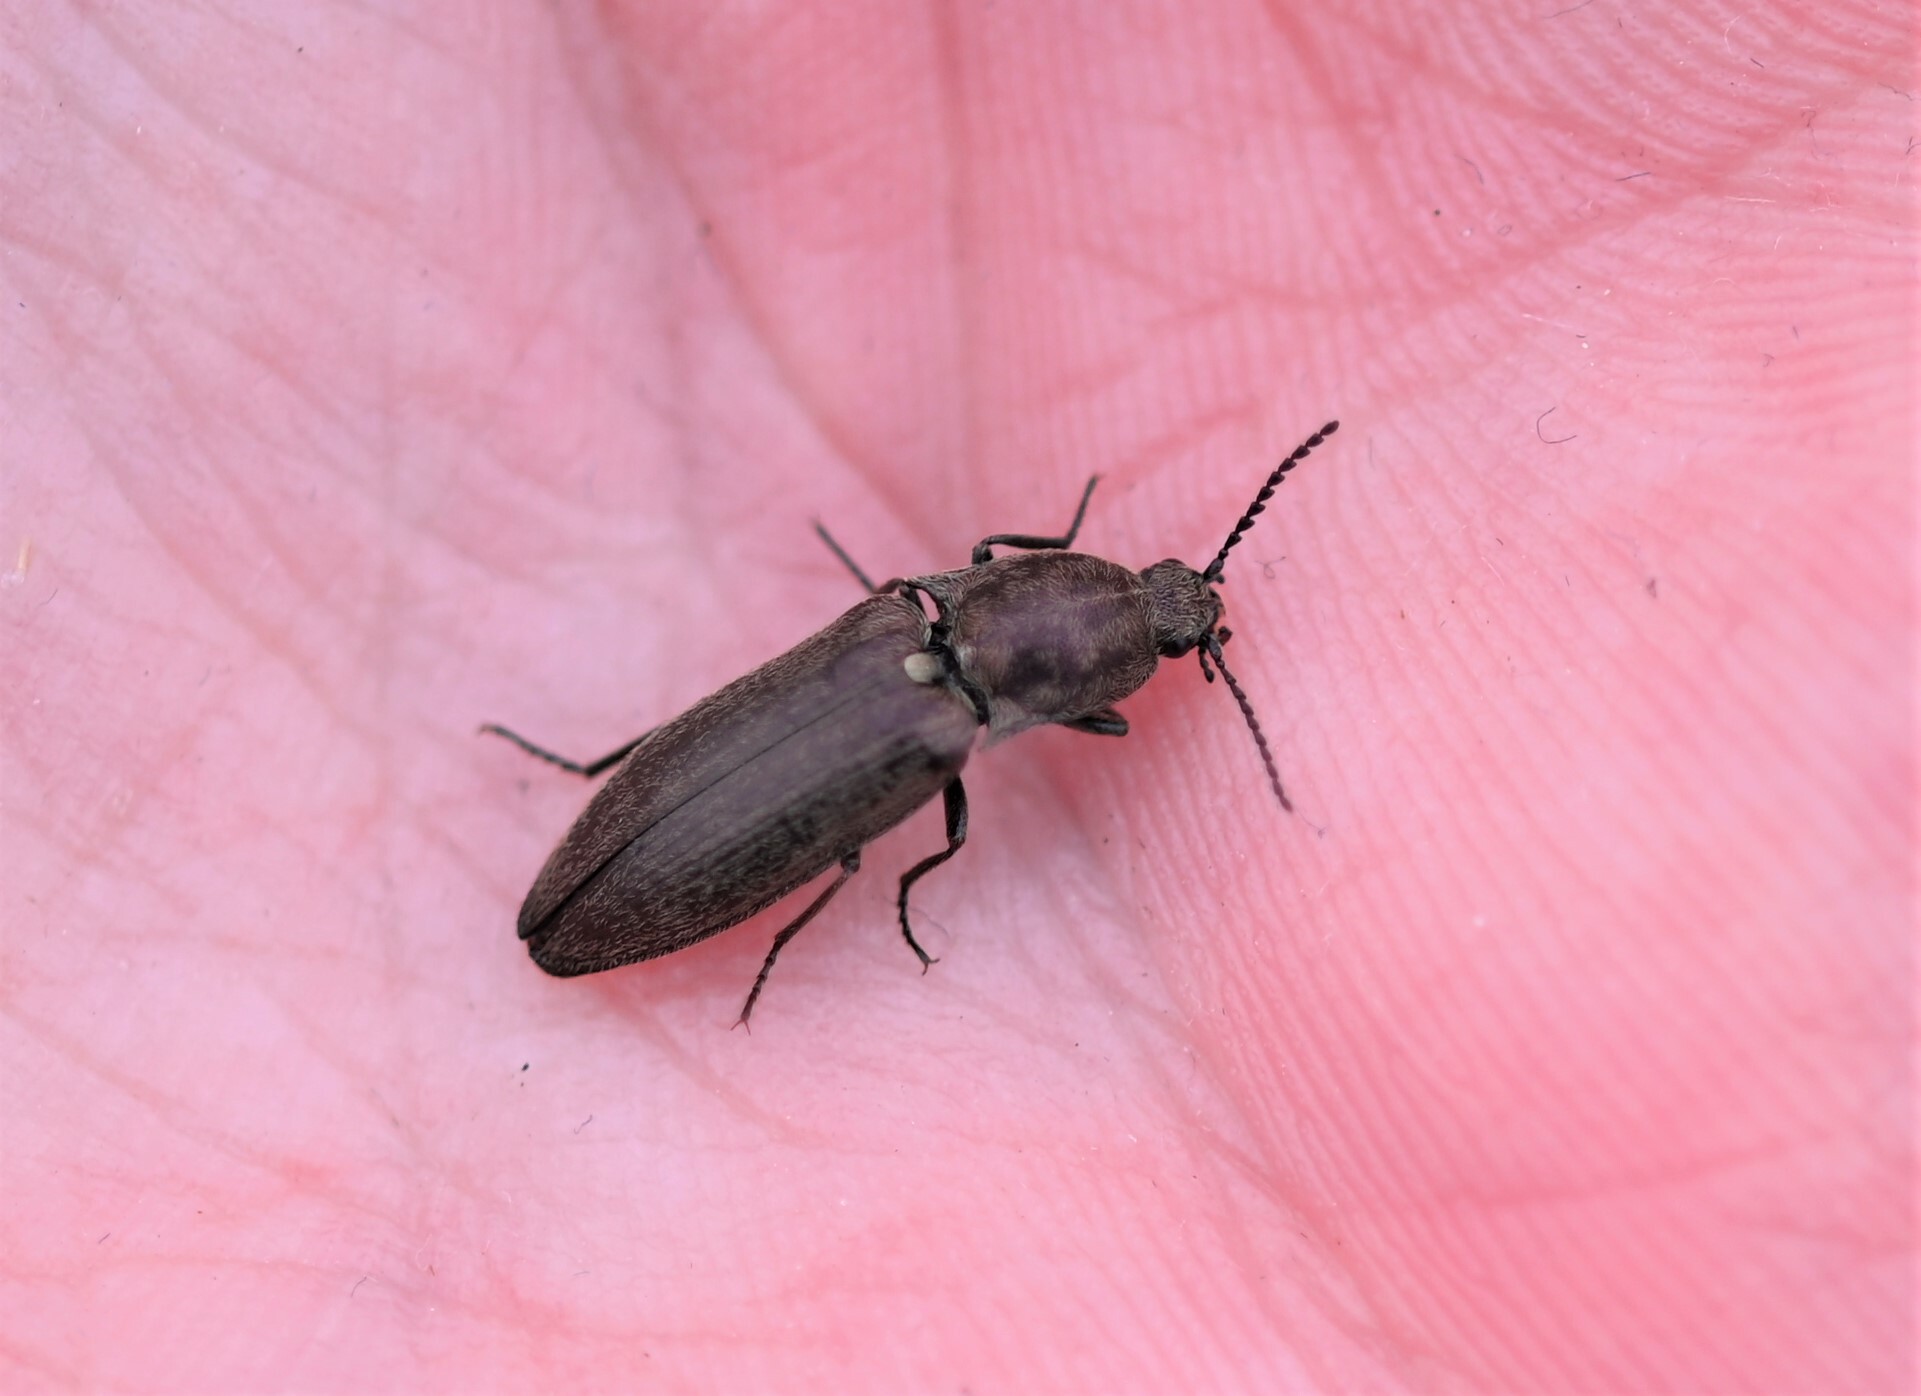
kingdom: Animalia
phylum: Arthropoda
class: Insecta
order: Coleoptera
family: Elateridae
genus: Actenicerus
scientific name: Actenicerus sjaelandicus
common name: Marsh click beetle
